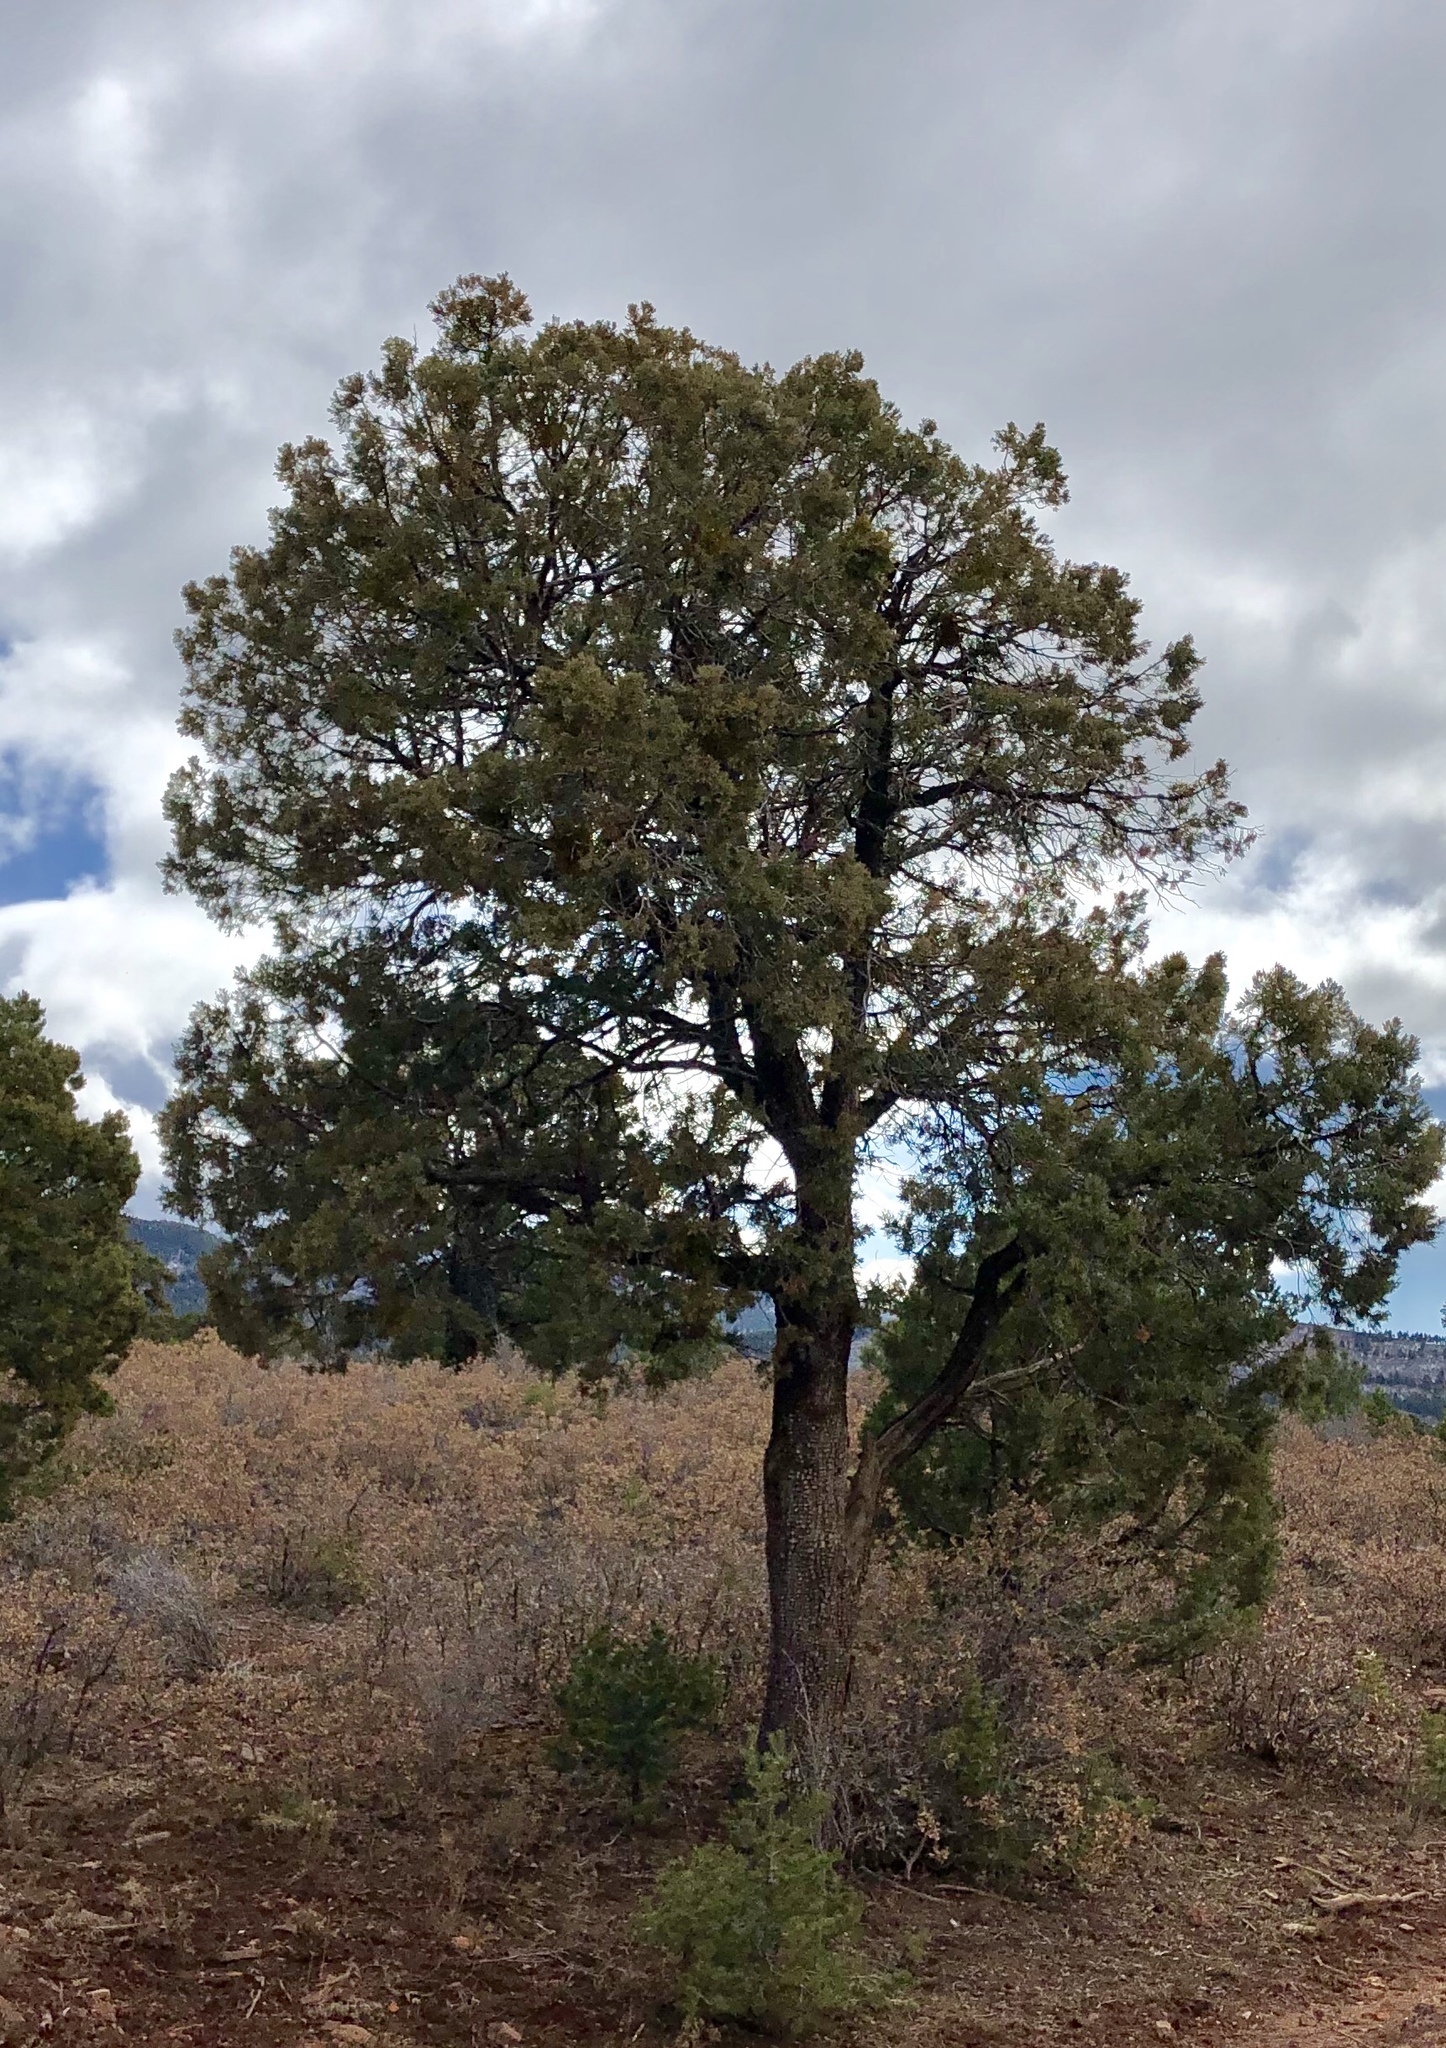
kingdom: Plantae
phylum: Tracheophyta
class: Pinopsida
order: Pinales
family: Cupressaceae
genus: Juniperus
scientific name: Juniperus deppeana
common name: Alligator juniper
